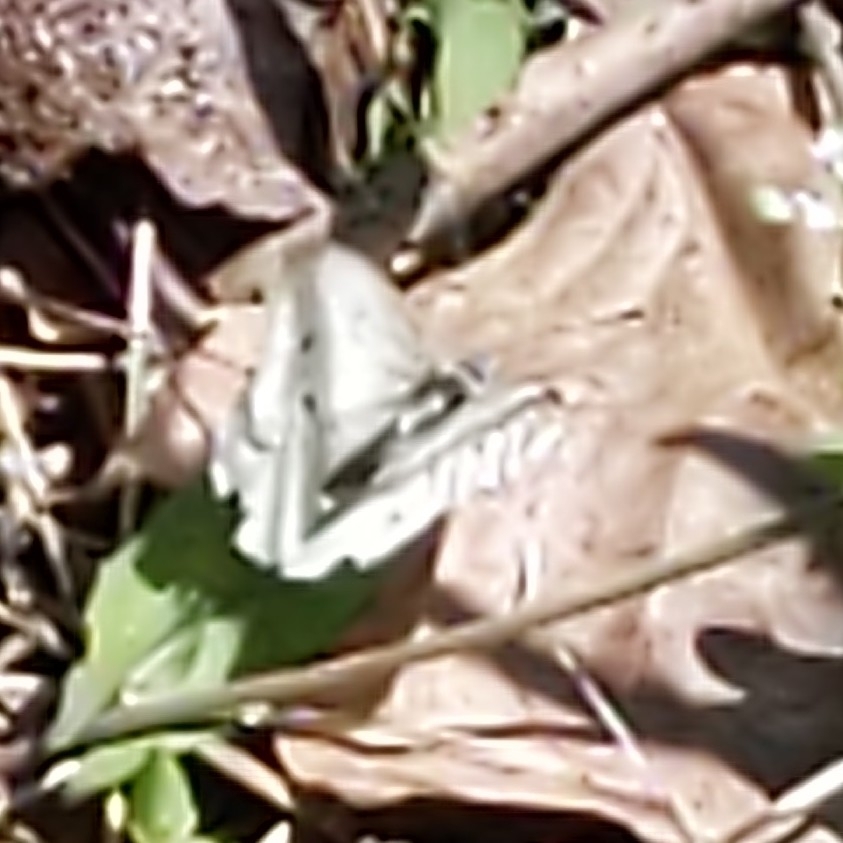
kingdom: Animalia
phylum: Arthropoda
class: Insecta
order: Lepidoptera
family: Pieridae
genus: Pieris
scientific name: Pieris rapae
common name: Small white
